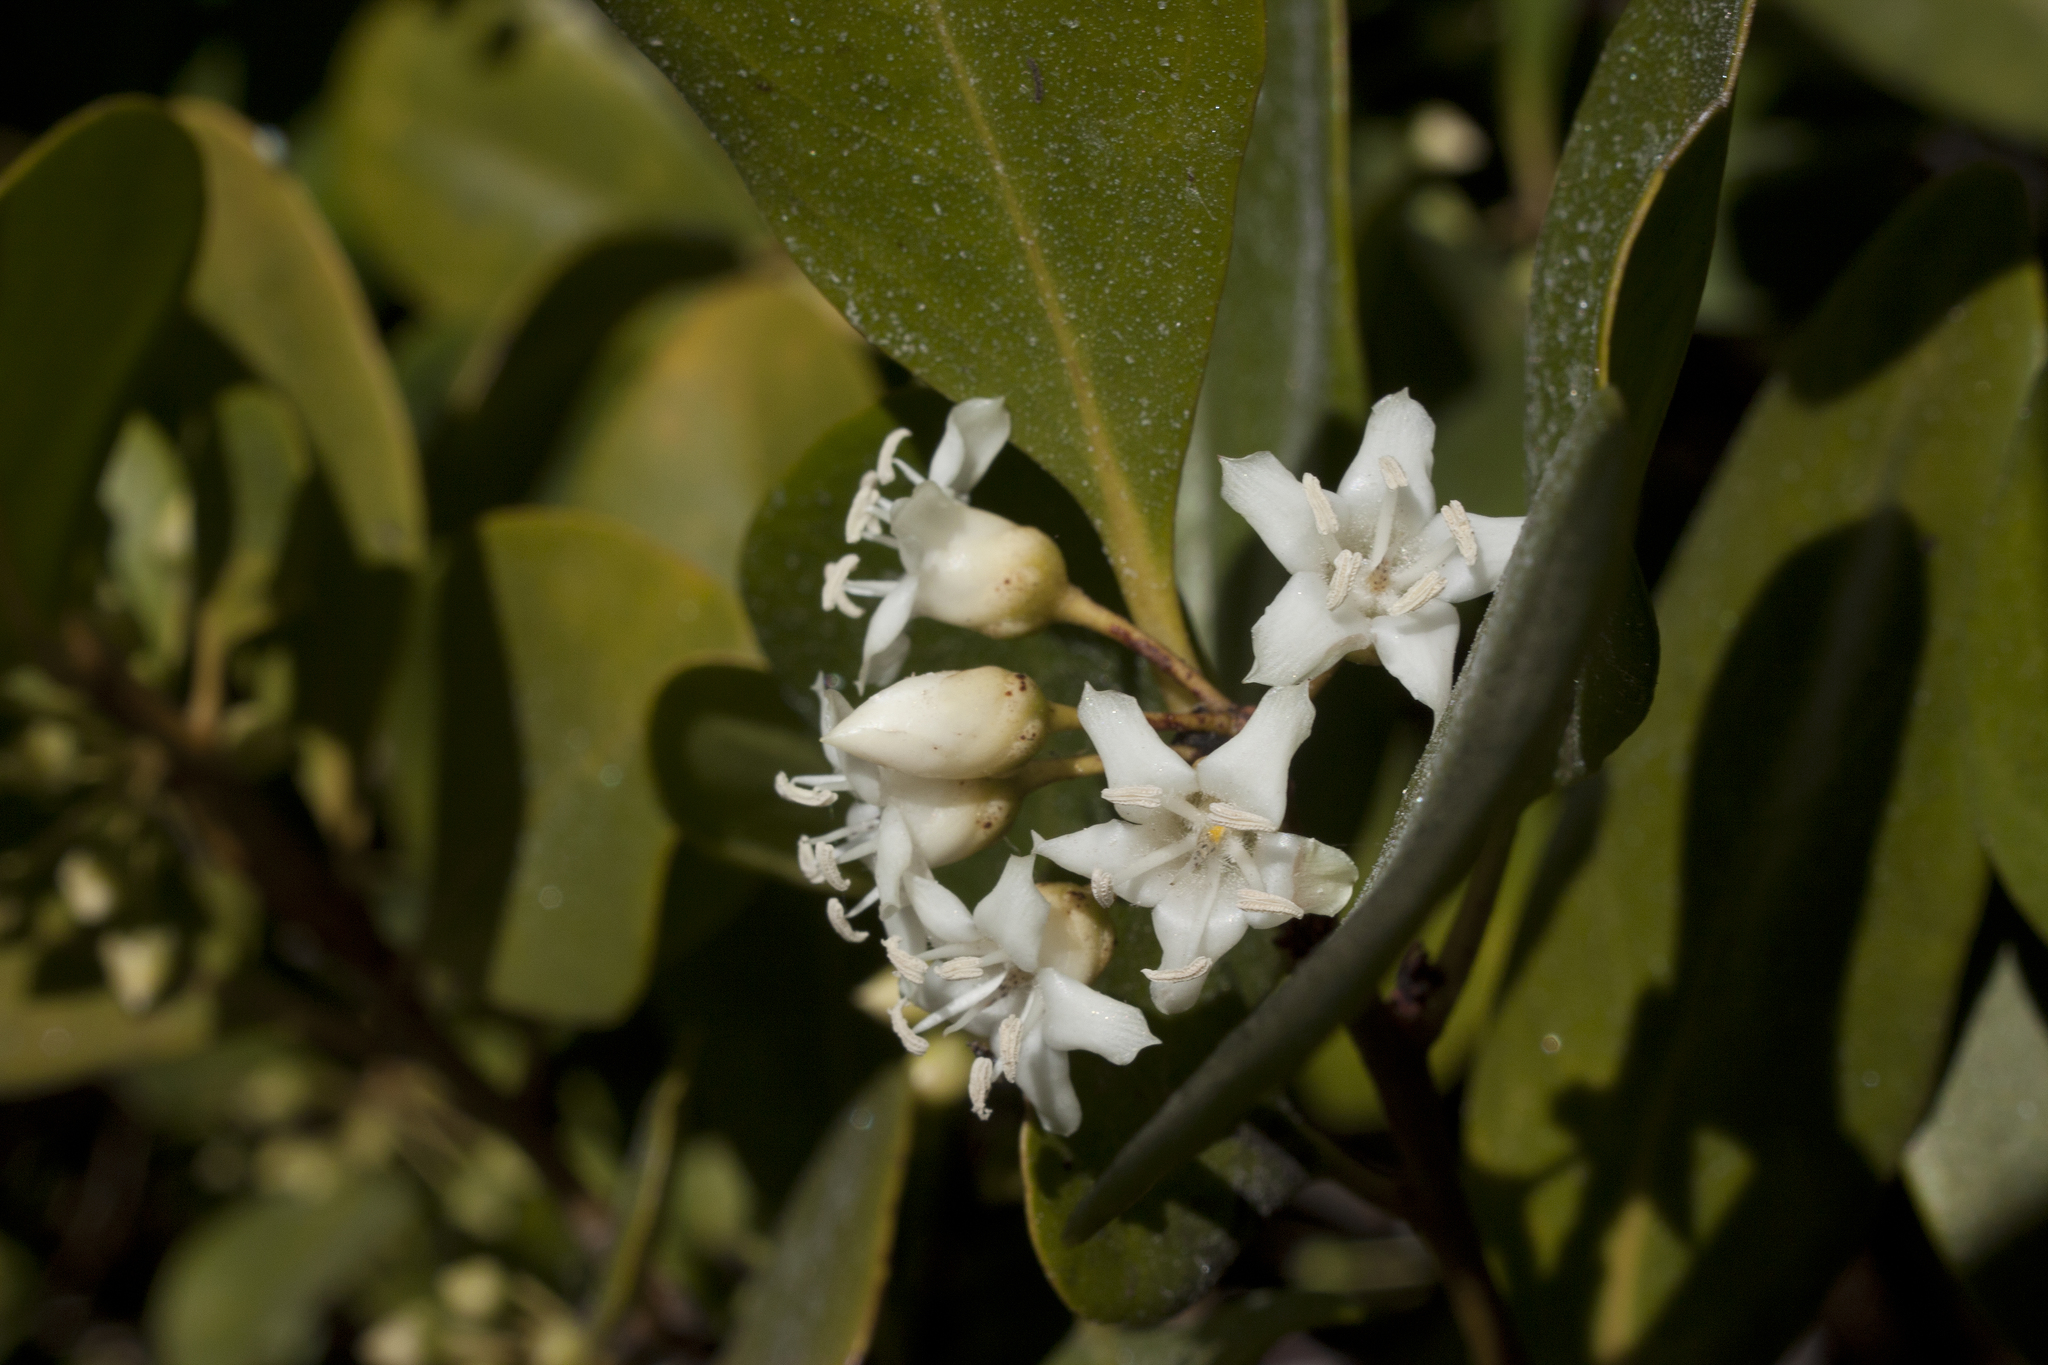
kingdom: Plantae
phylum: Tracheophyta
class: Magnoliopsida
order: Ericales
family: Primulaceae
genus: Aegiceras
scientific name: Aegiceras corniculatum
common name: River mangrove
